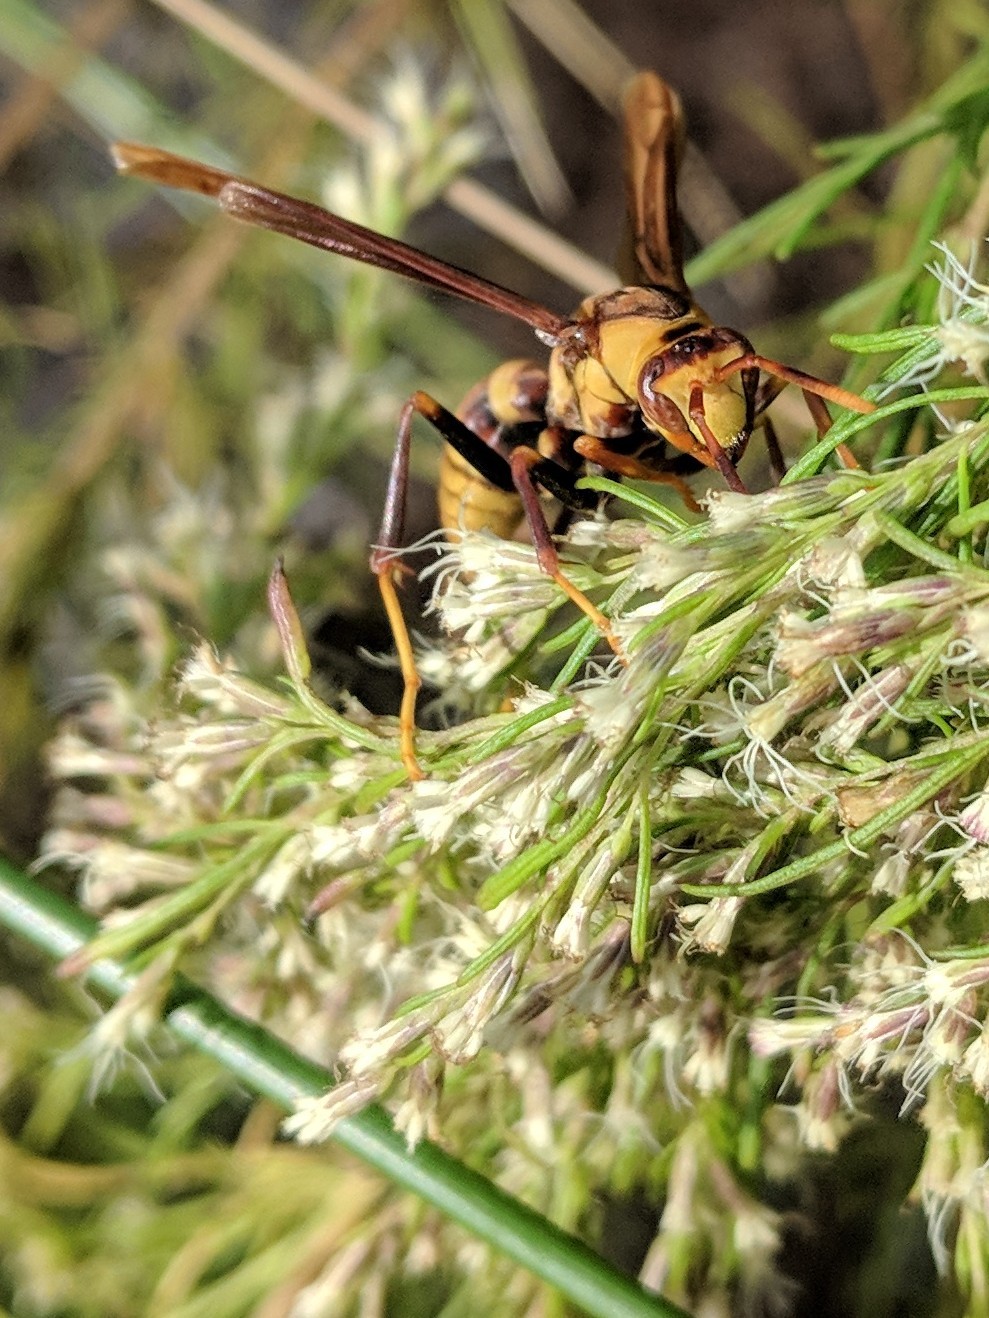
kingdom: Animalia
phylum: Arthropoda
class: Insecta
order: Hymenoptera
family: Eumenidae
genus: Polistes
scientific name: Polistes major
